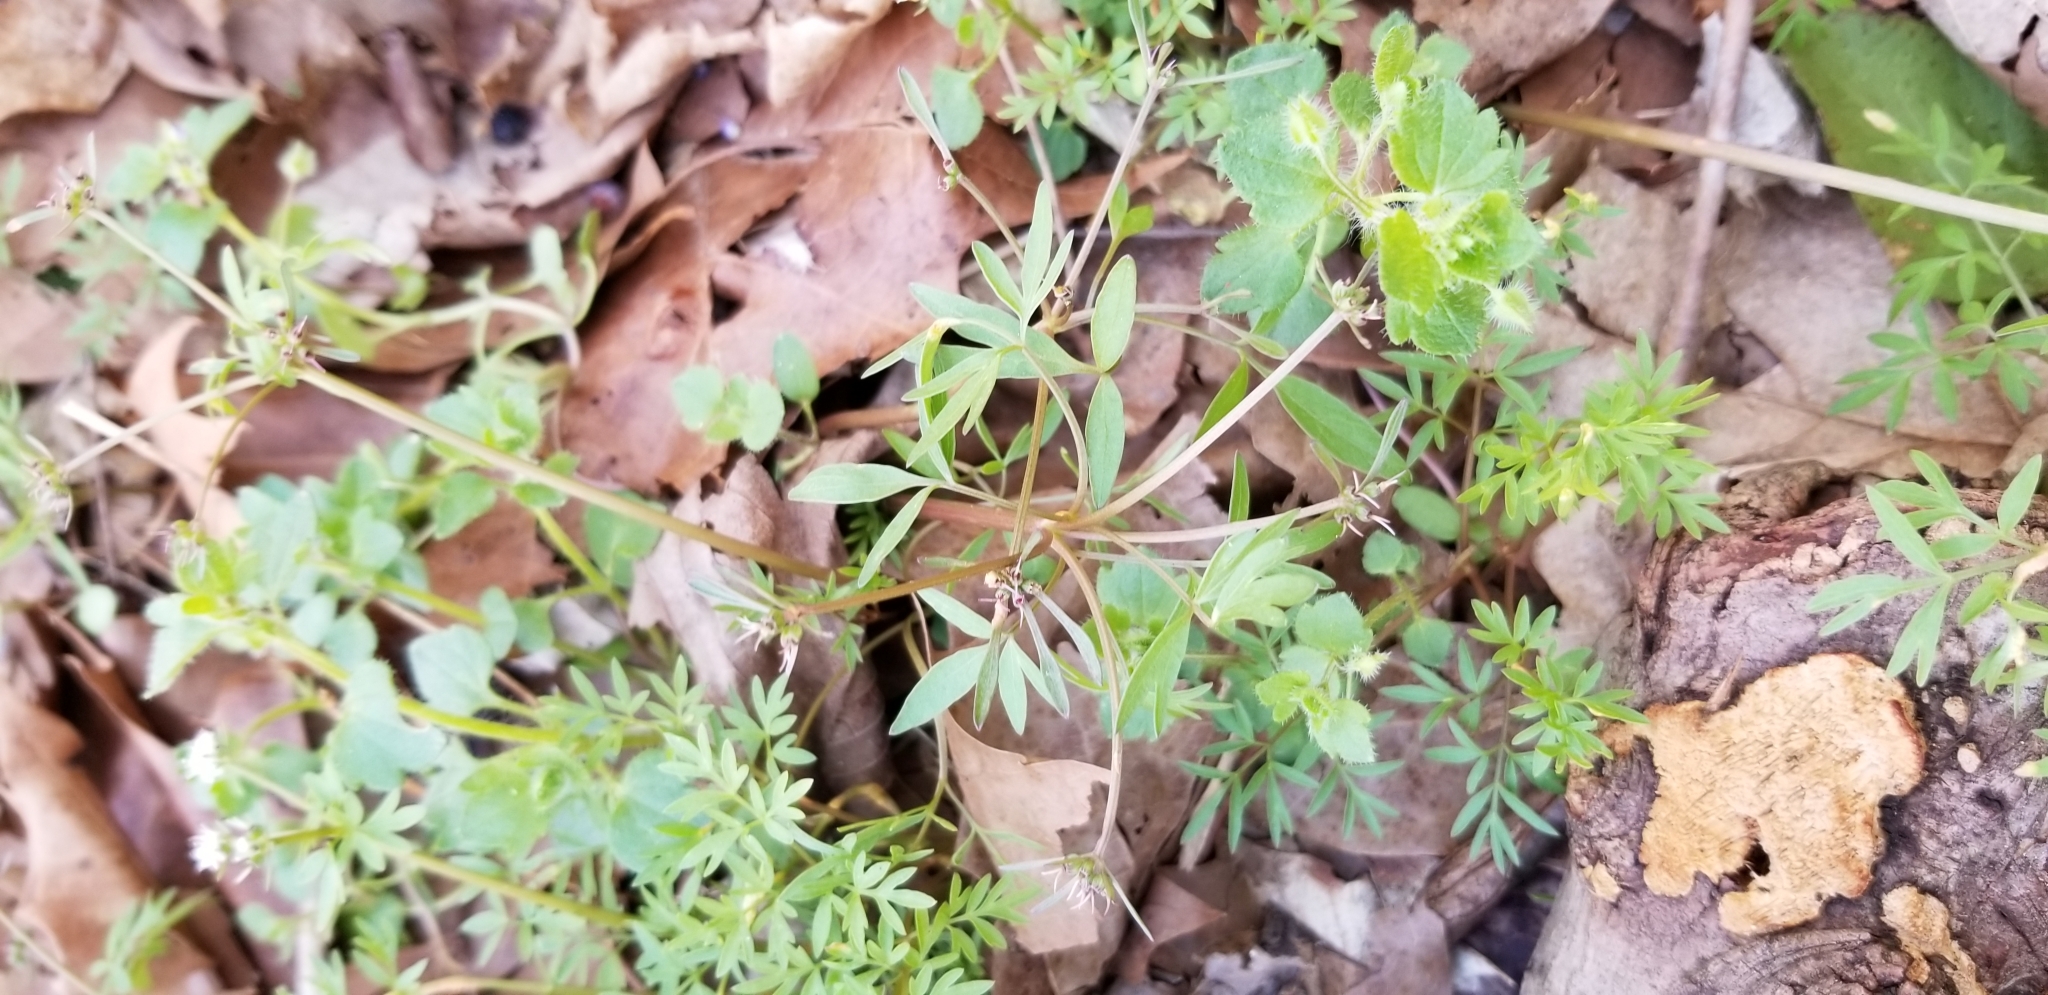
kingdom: Plantae
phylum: Tracheophyta
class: Magnoliopsida
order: Apiales
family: Apiaceae
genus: Erigenia
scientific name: Erigenia bulbosa
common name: Pepper-and-salt
